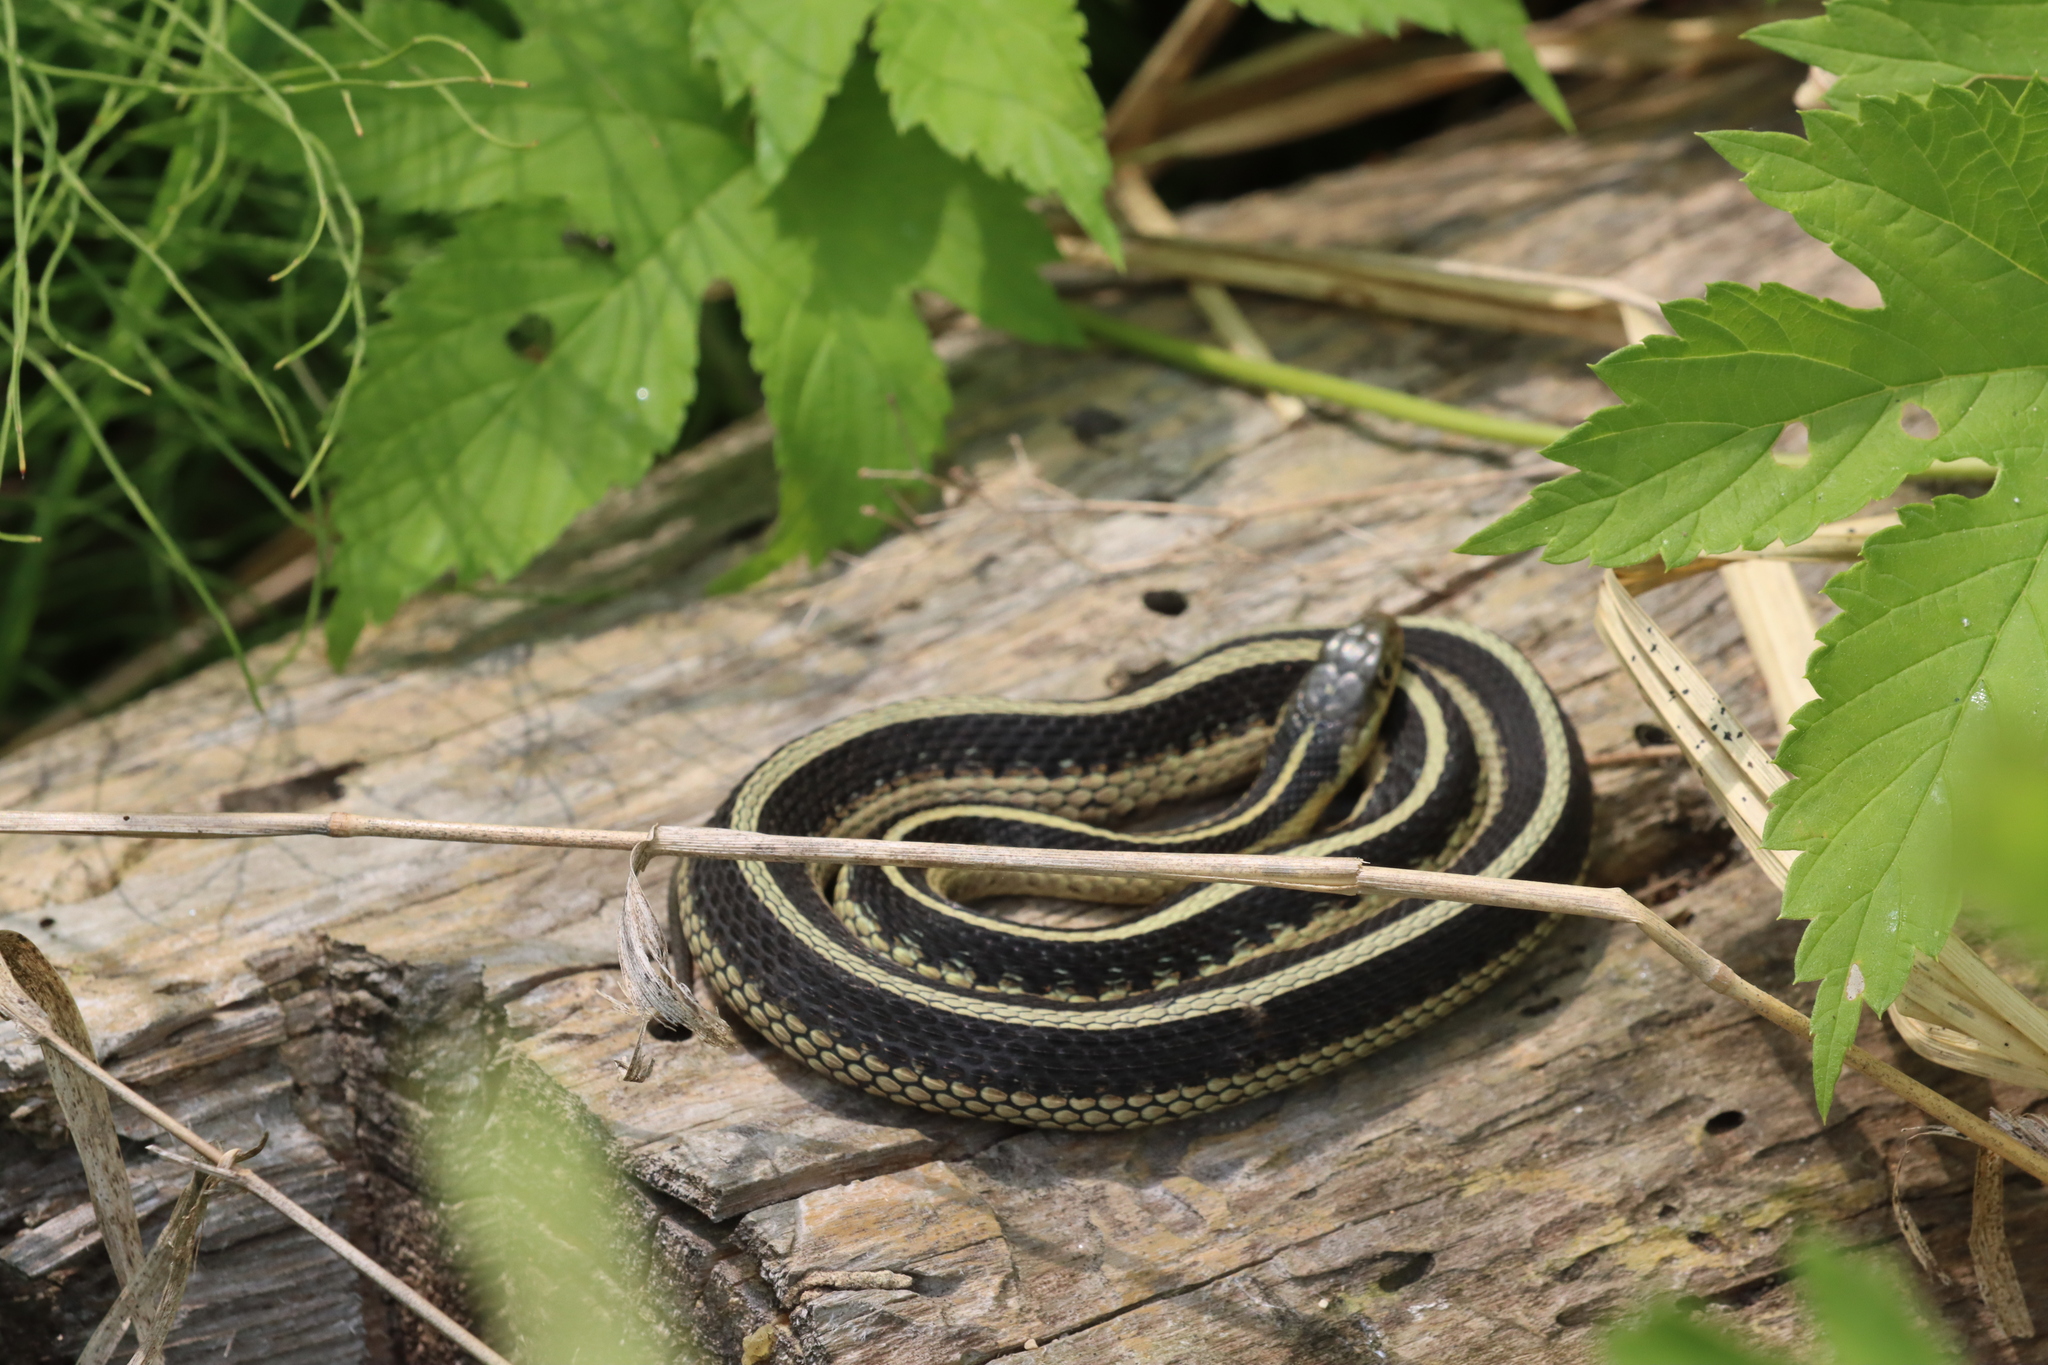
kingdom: Animalia
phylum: Chordata
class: Squamata
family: Colubridae
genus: Thamnophis
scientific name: Thamnophis sirtalis
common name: Common garter snake
